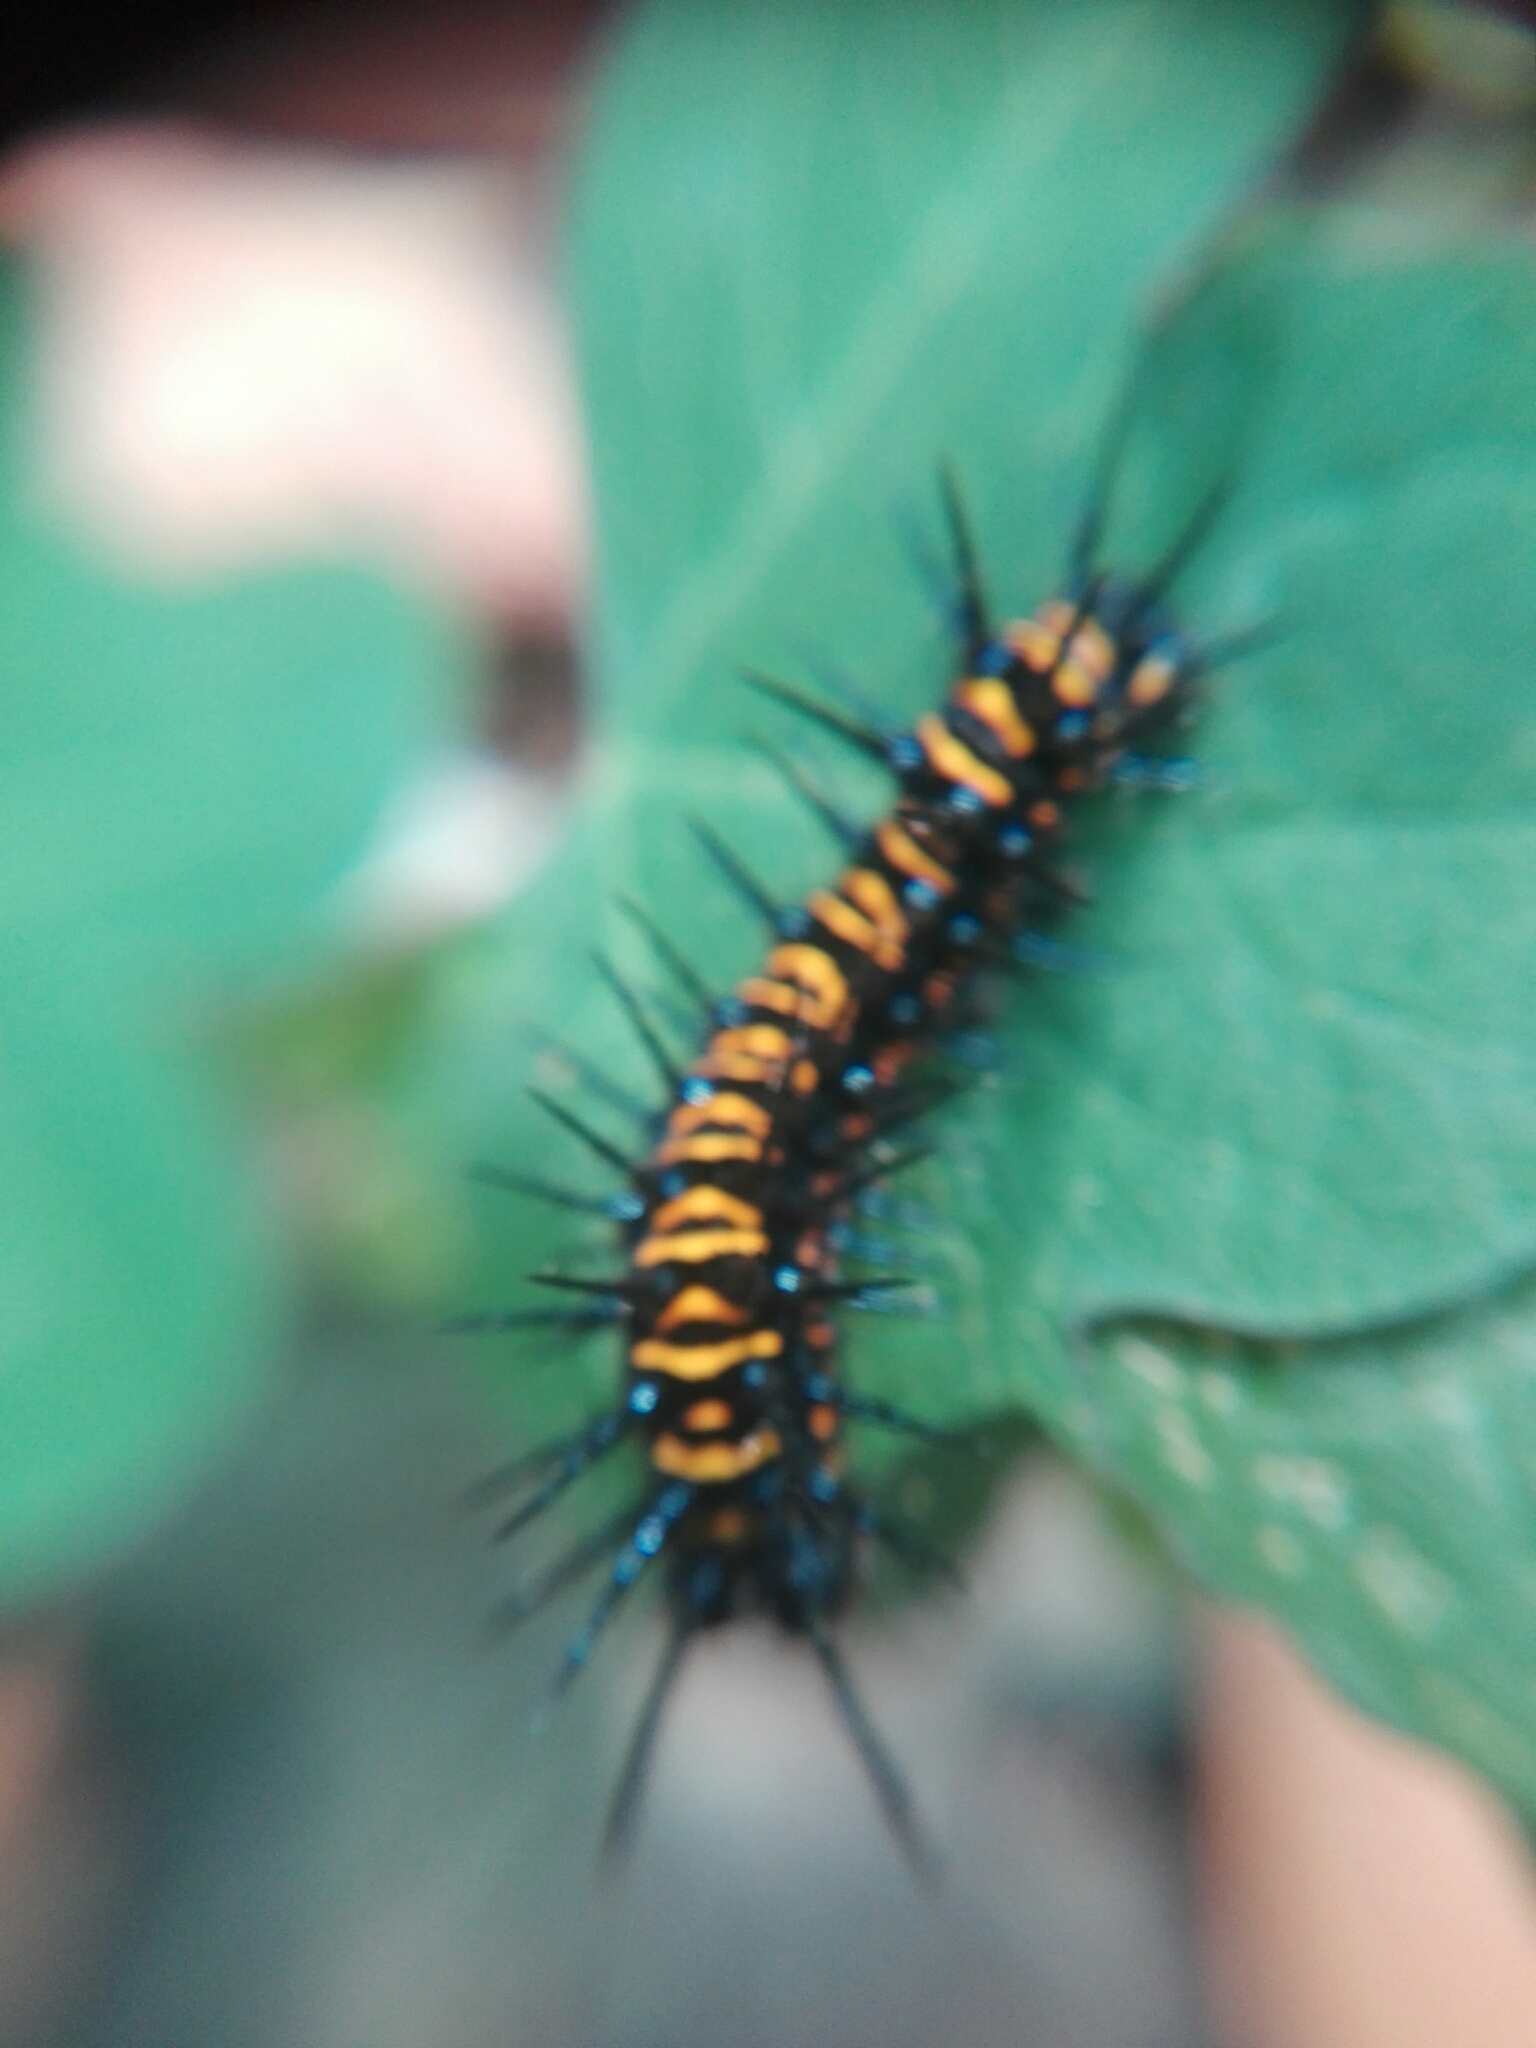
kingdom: Animalia
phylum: Arthropoda
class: Insecta
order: Lepidoptera
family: Nymphalidae
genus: Dione
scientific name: Dione moneta
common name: Mexican silverspot
